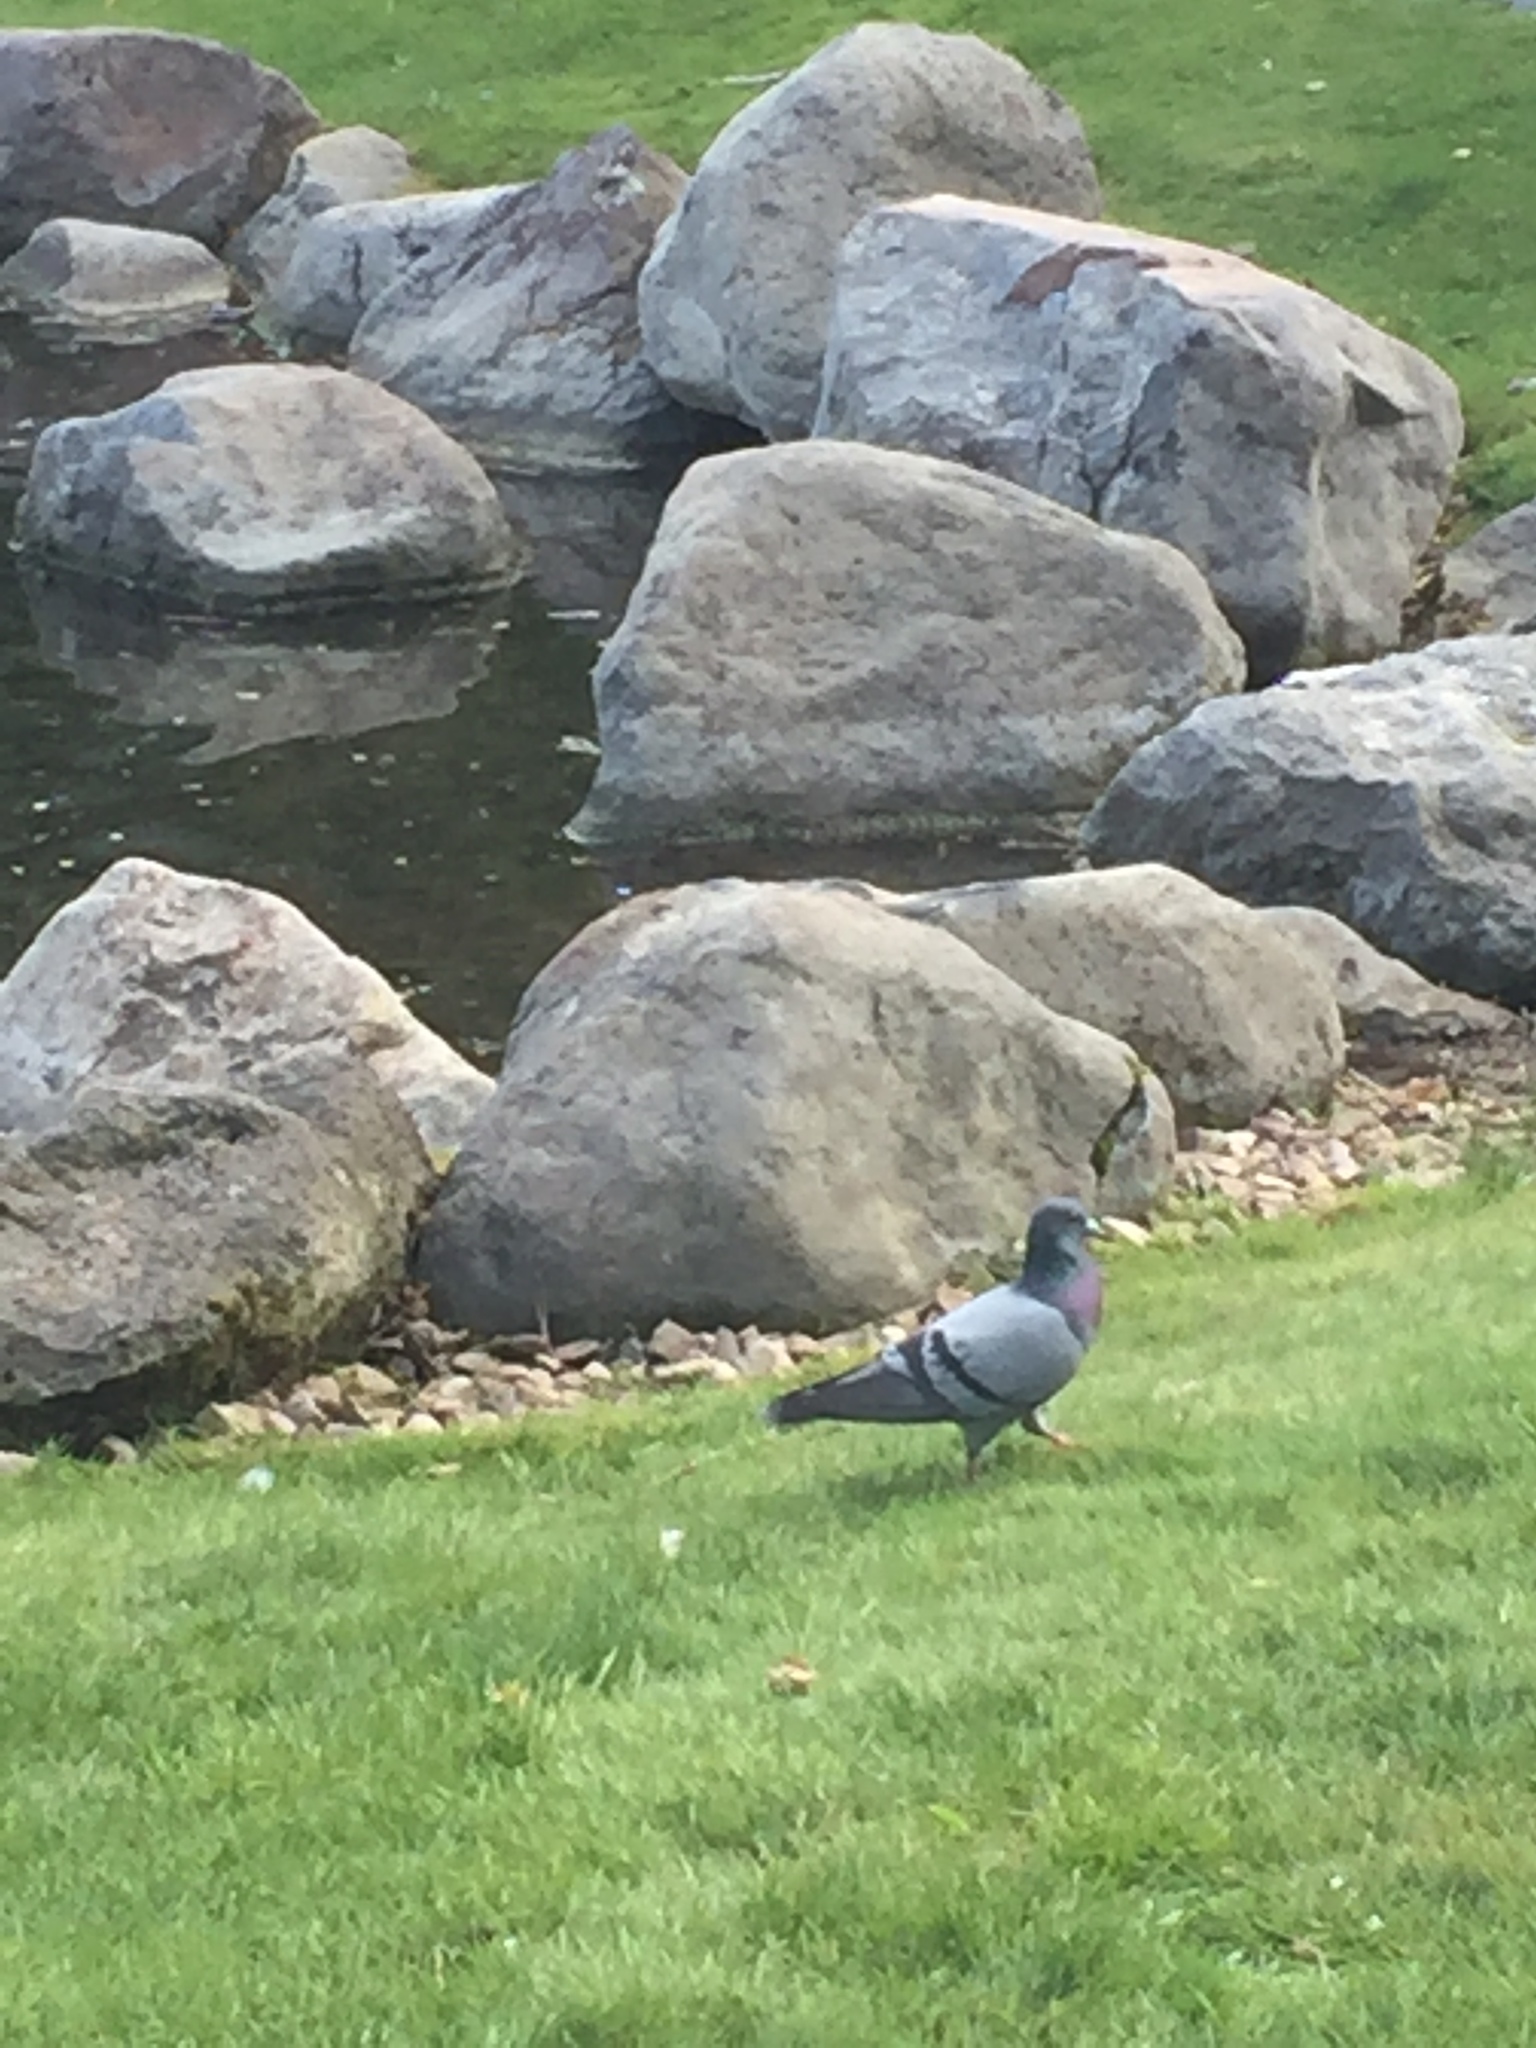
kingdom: Animalia
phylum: Chordata
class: Aves
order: Columbiformes
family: Columbidae
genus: Columba
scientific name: Columba livia
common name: Rock pigeon
